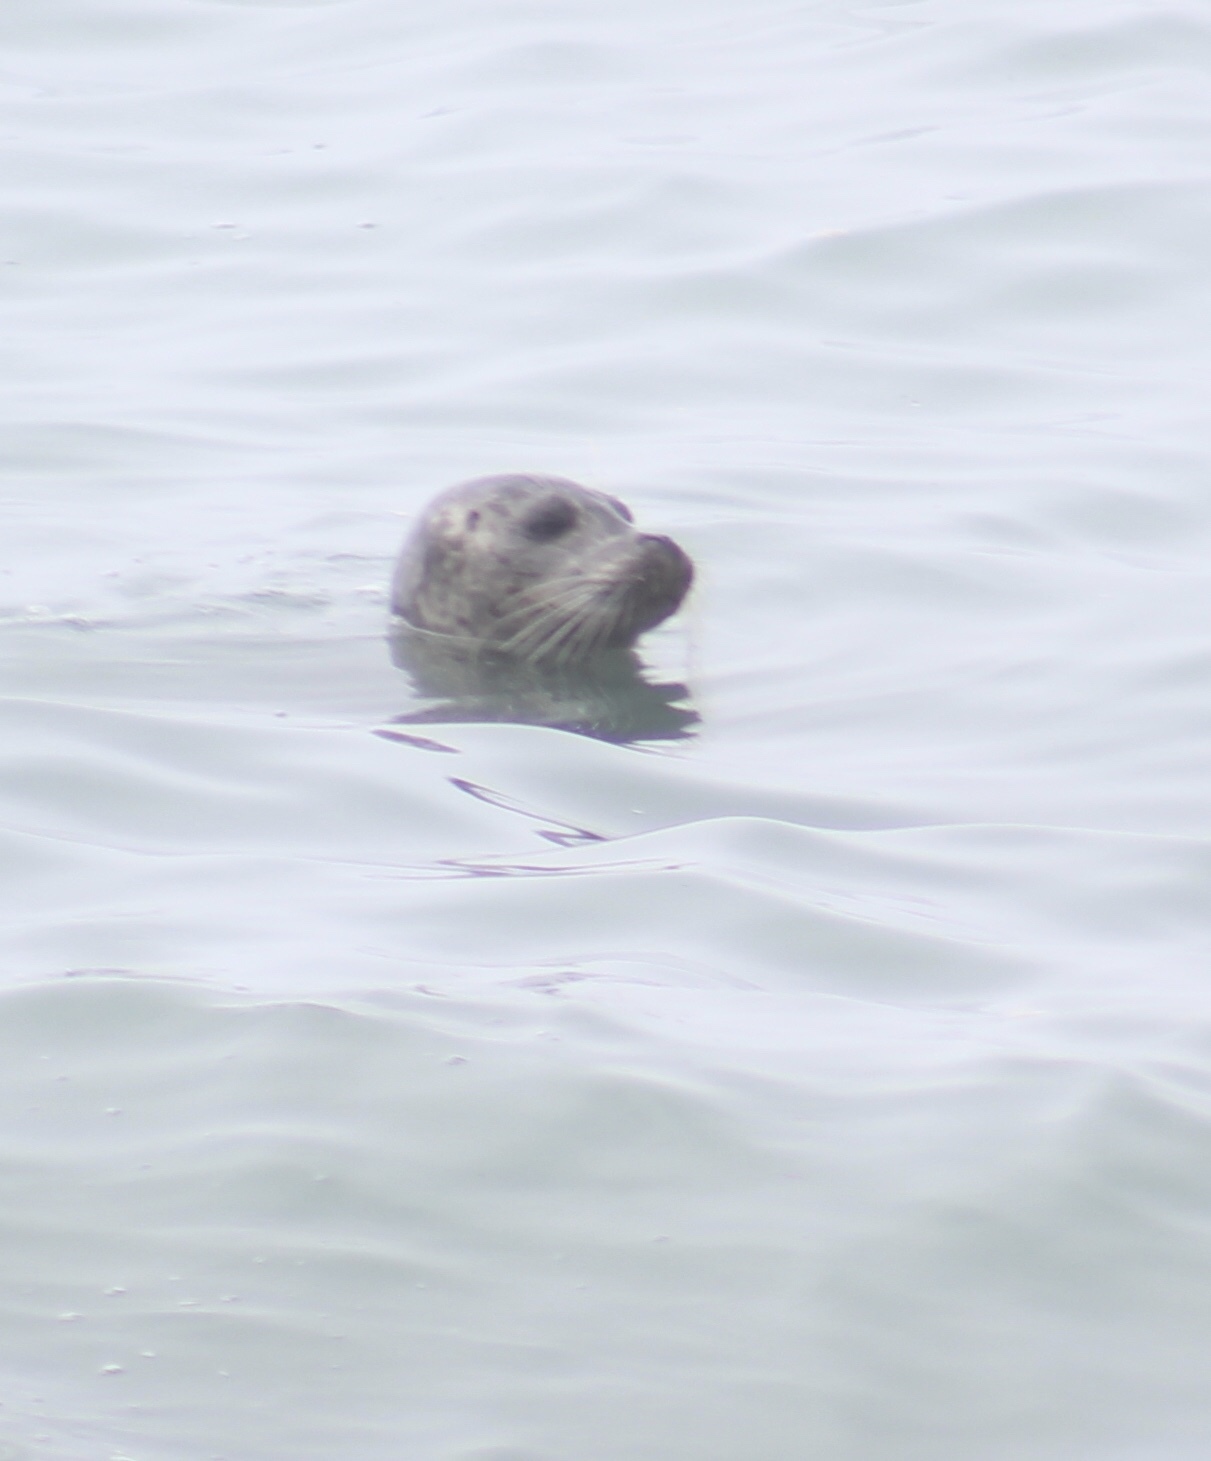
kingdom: Animalia
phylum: Chordata
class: Mammalia
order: Carnivora
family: Phocidae
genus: Phoca
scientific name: Phoca vitulina
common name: Harbor seal
